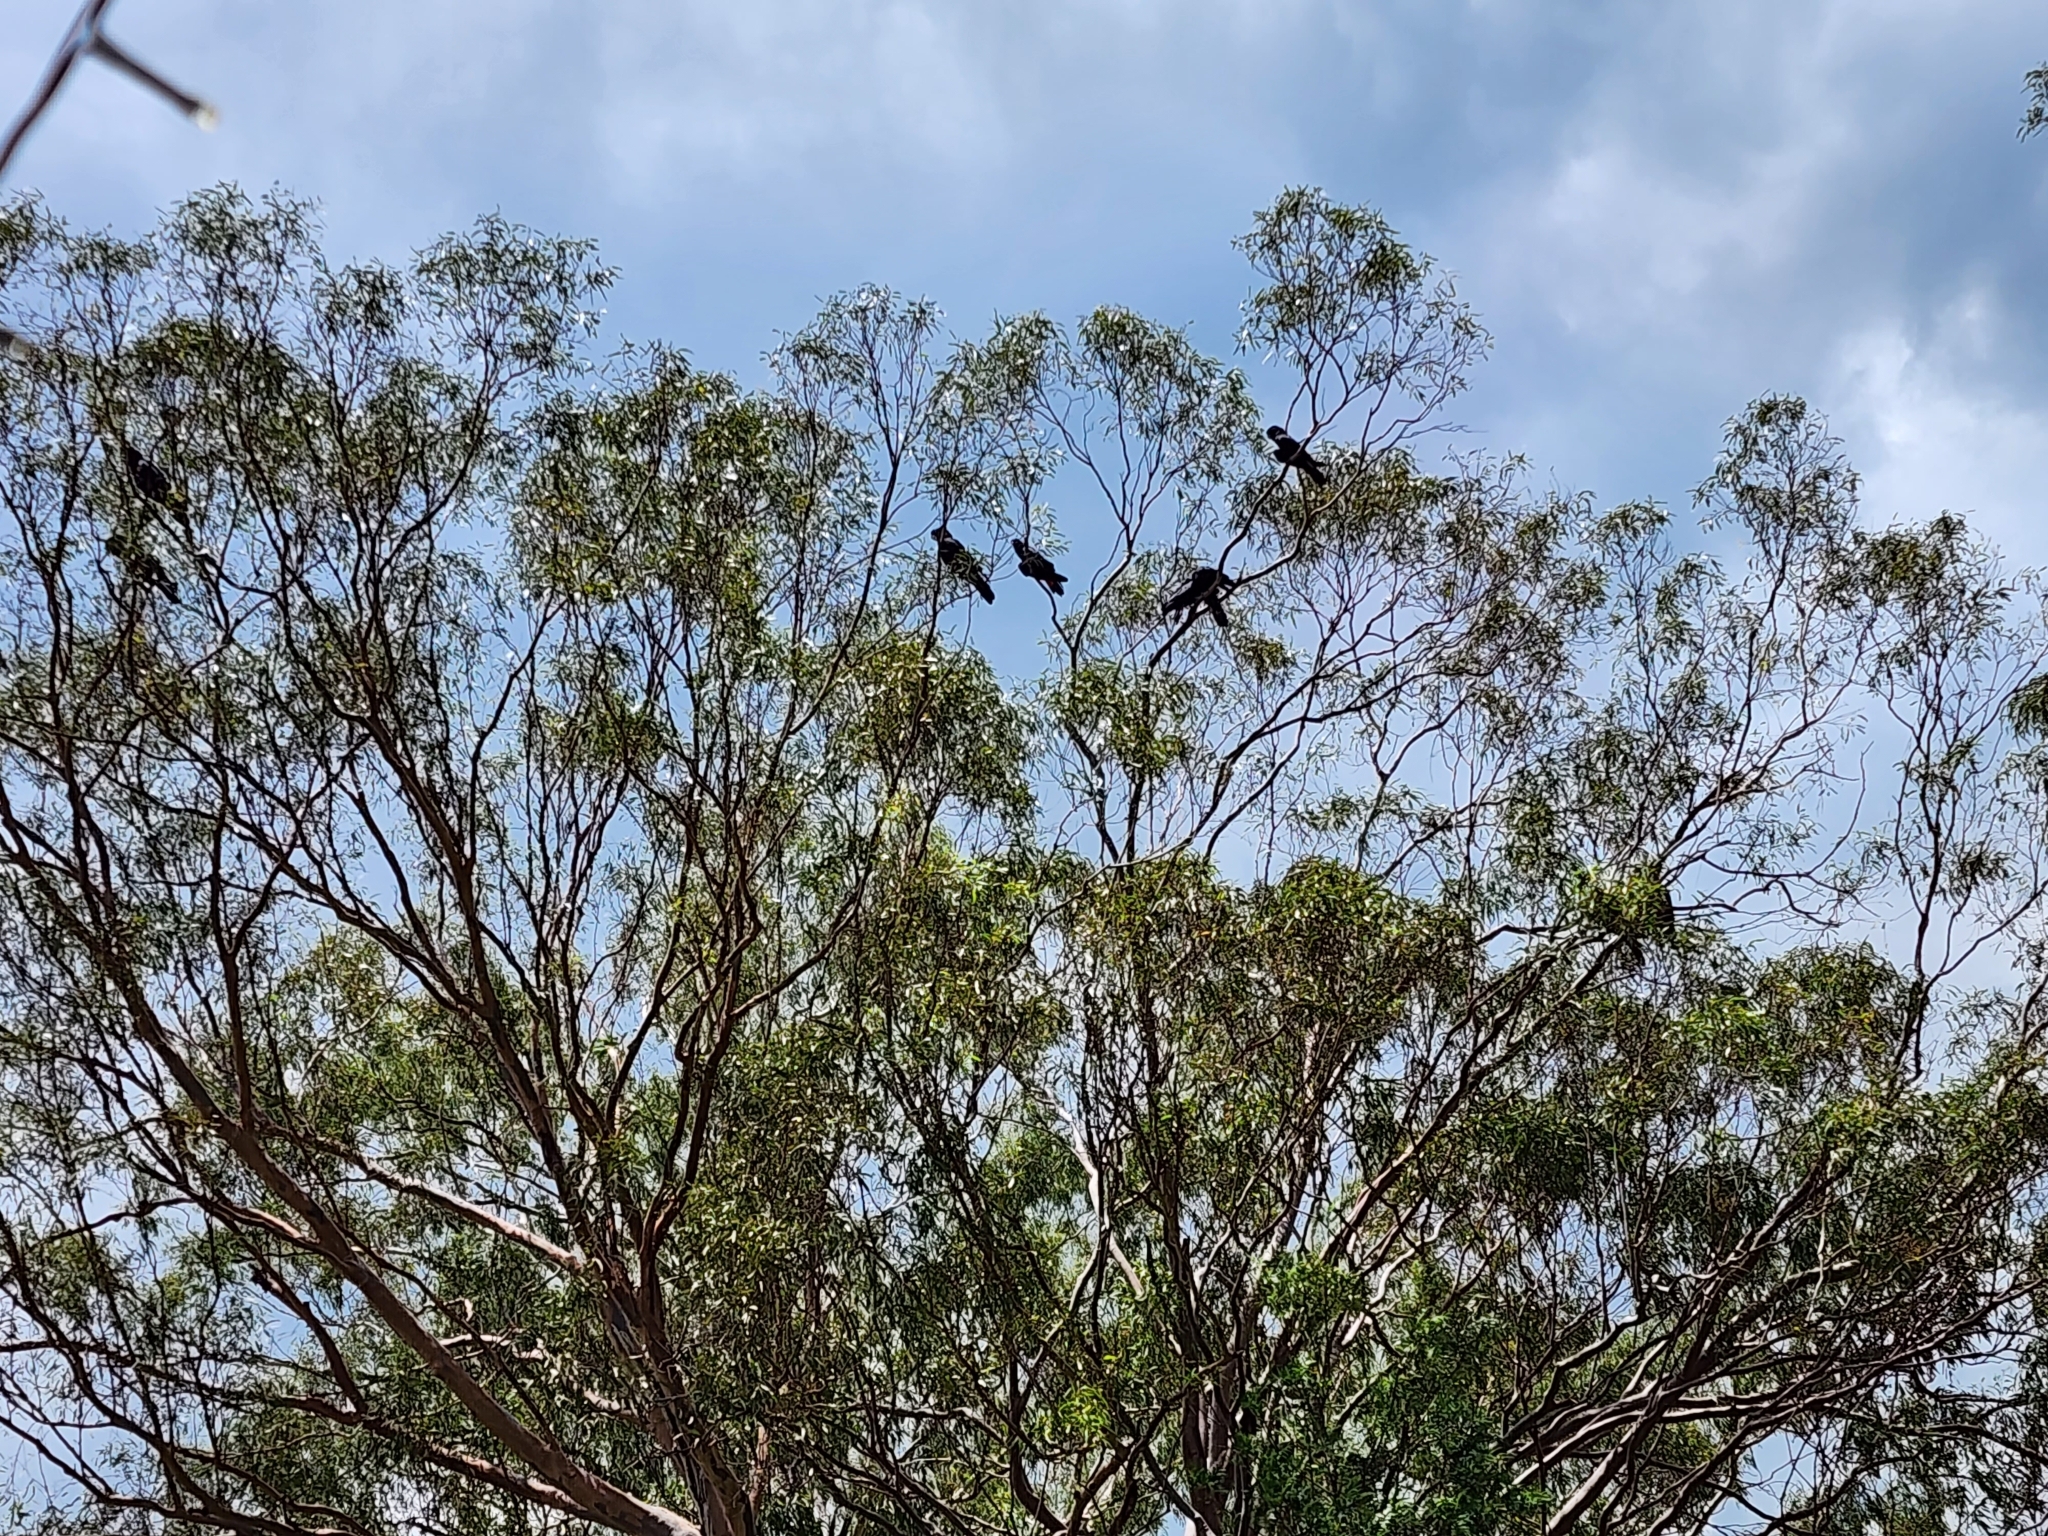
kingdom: Animalia
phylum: Chordata
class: Aves
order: Psittaciformes
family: Psittacidae
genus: Calyptorhynchus
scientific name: Calyptorhynchus banksii
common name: Red-tailed black cockatoo
